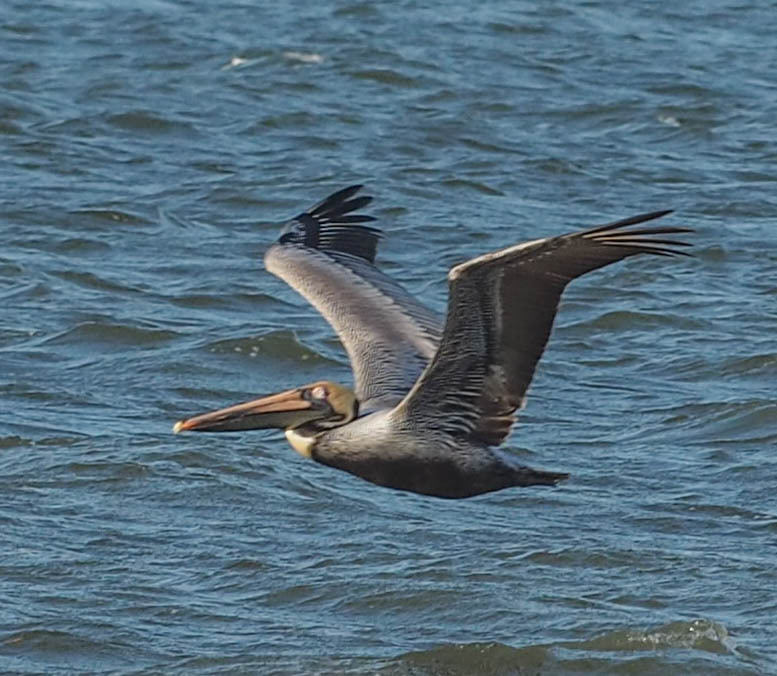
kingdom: Animalia
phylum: Chordata
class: Aves
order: Pelecaniformes
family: Pelecanidae
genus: Pelecanus
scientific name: Pelecanus occidentalis
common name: Brown pelican
